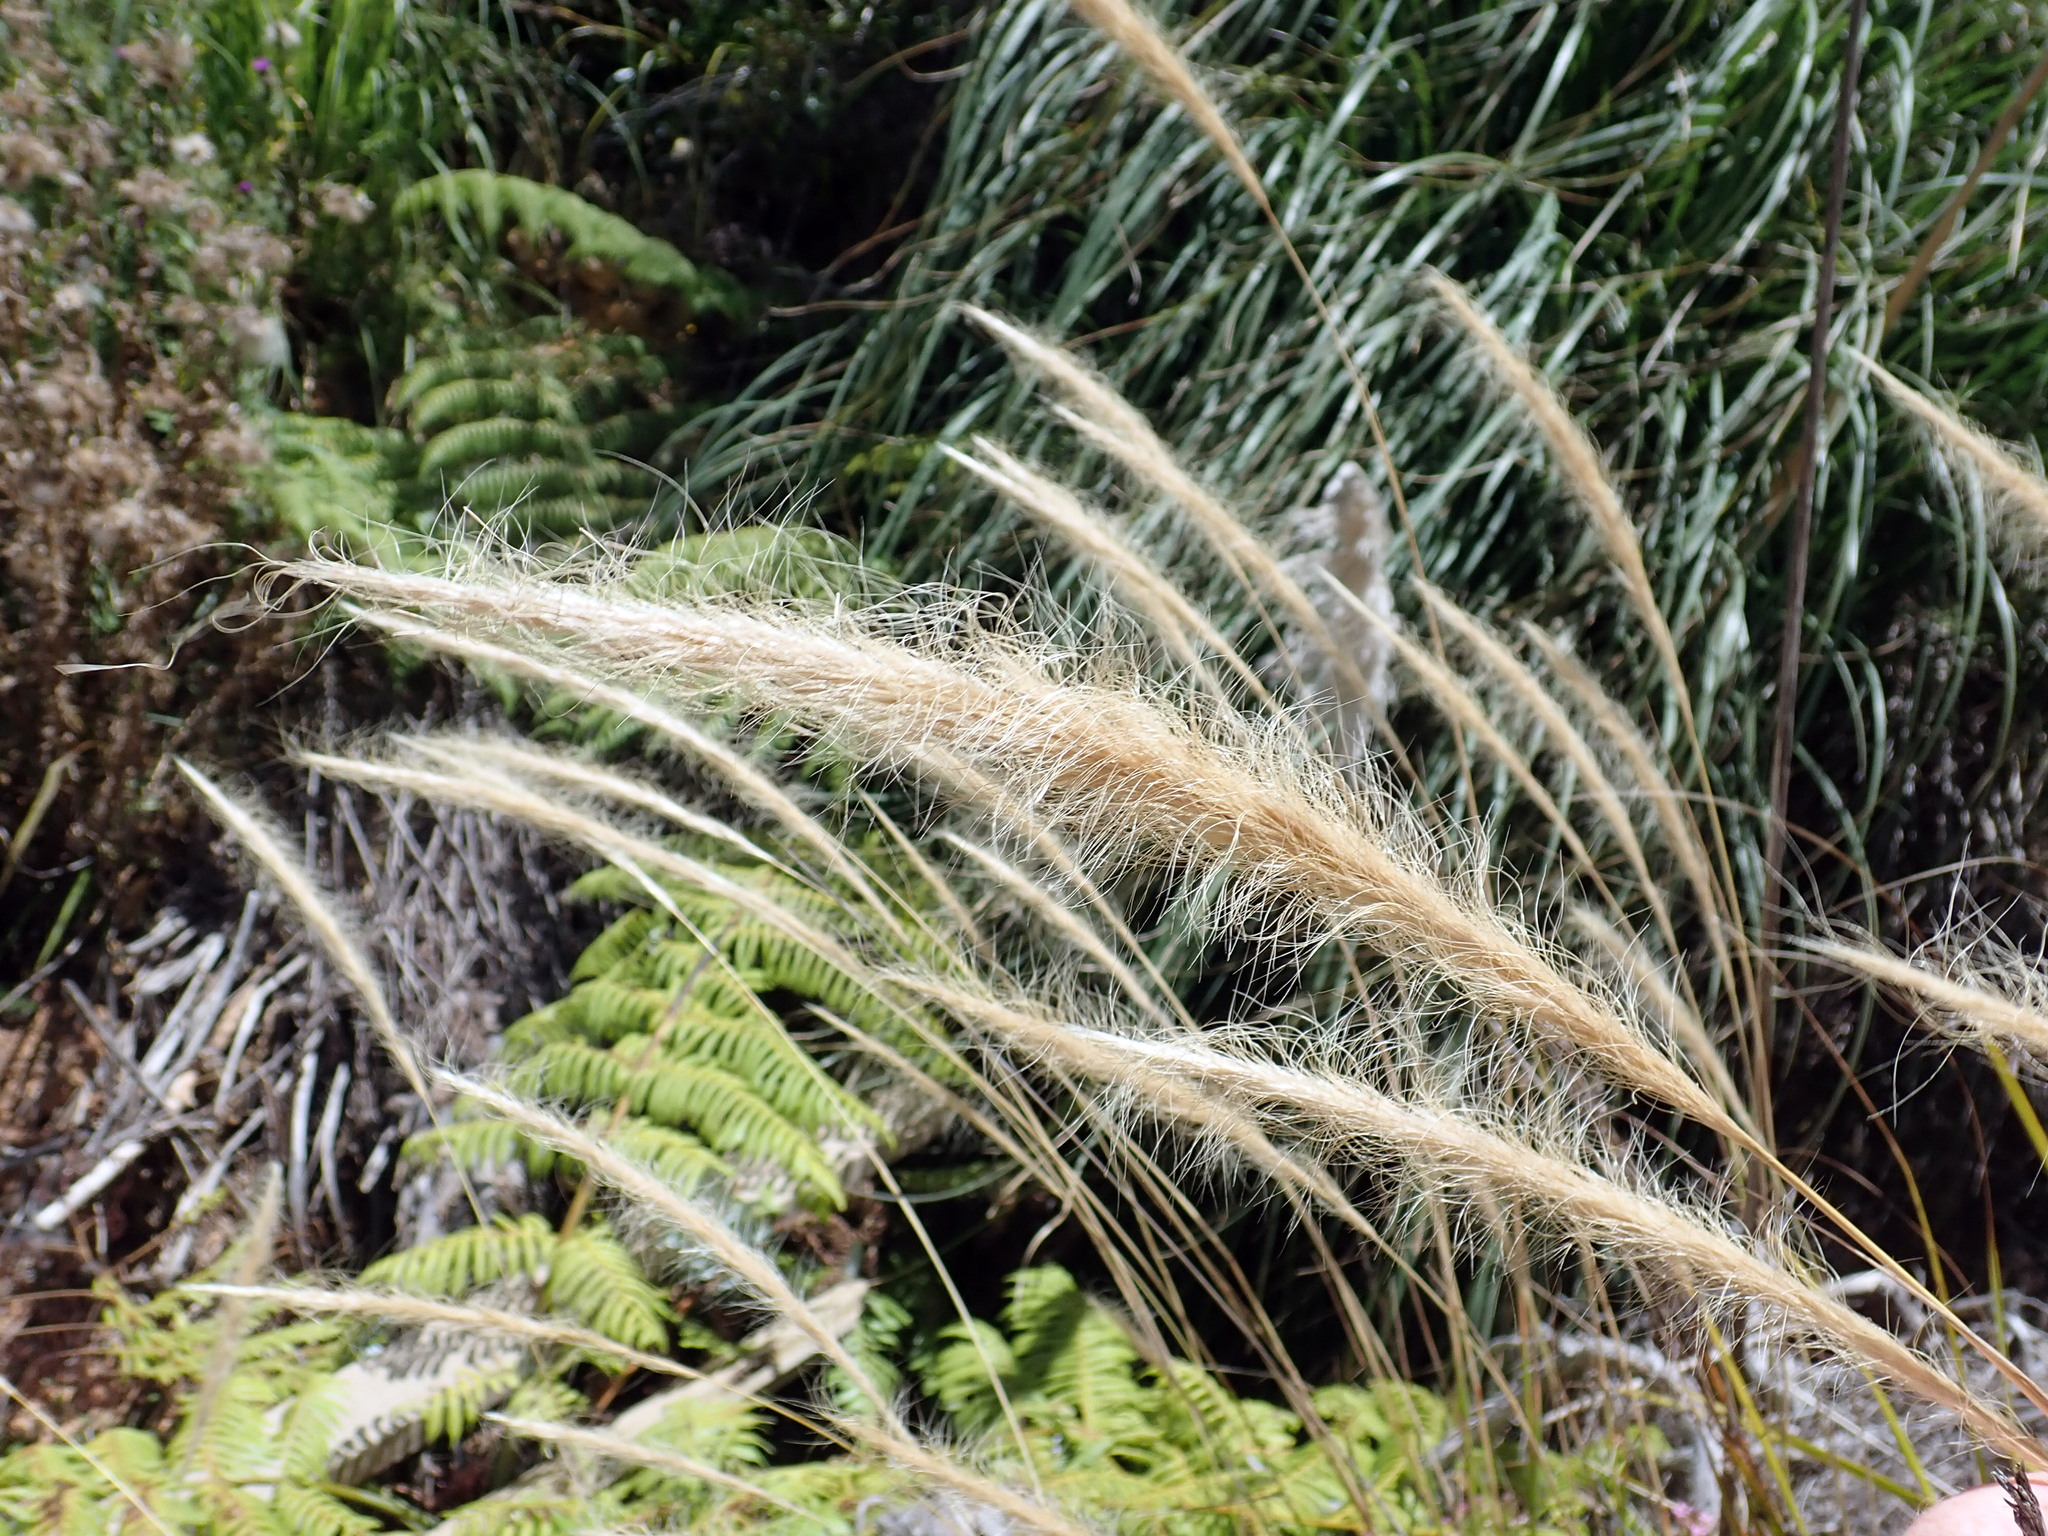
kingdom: Plantae
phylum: Tracheophyta
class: Liliopsida
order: Poales
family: Poaceae
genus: Dichelachne
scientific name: Dichelachne crinita
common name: Clovenfoot plumegrass
